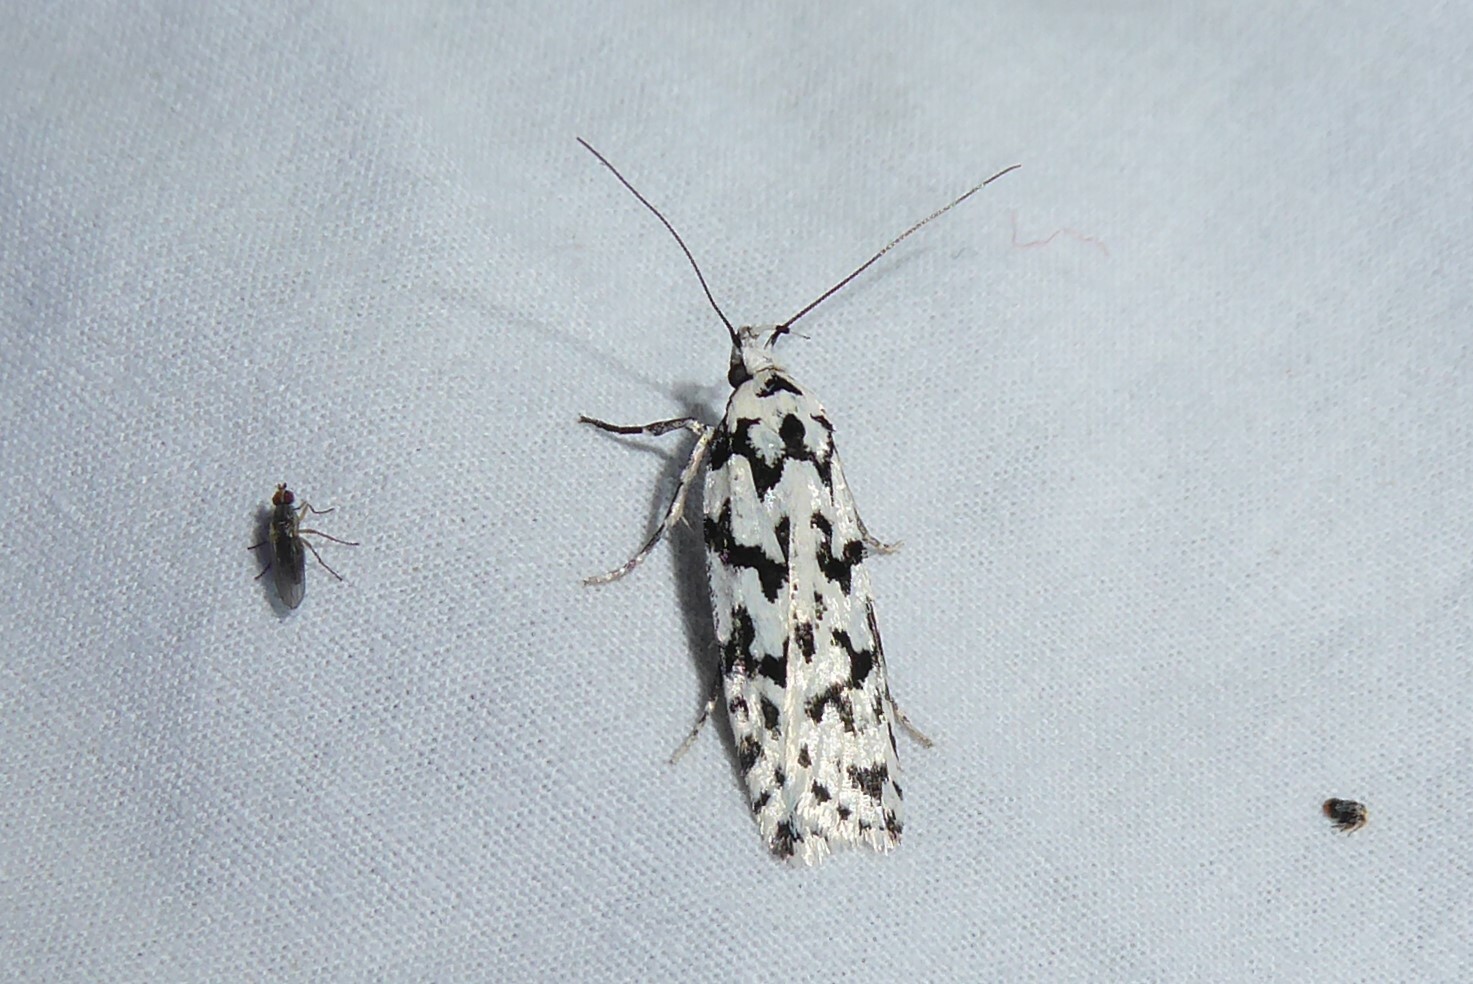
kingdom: Animalia
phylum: Arthropoda
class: Insecta
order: Lepidoptera
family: Oecophoridae
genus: Izatha
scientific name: Izatha katadiktya
